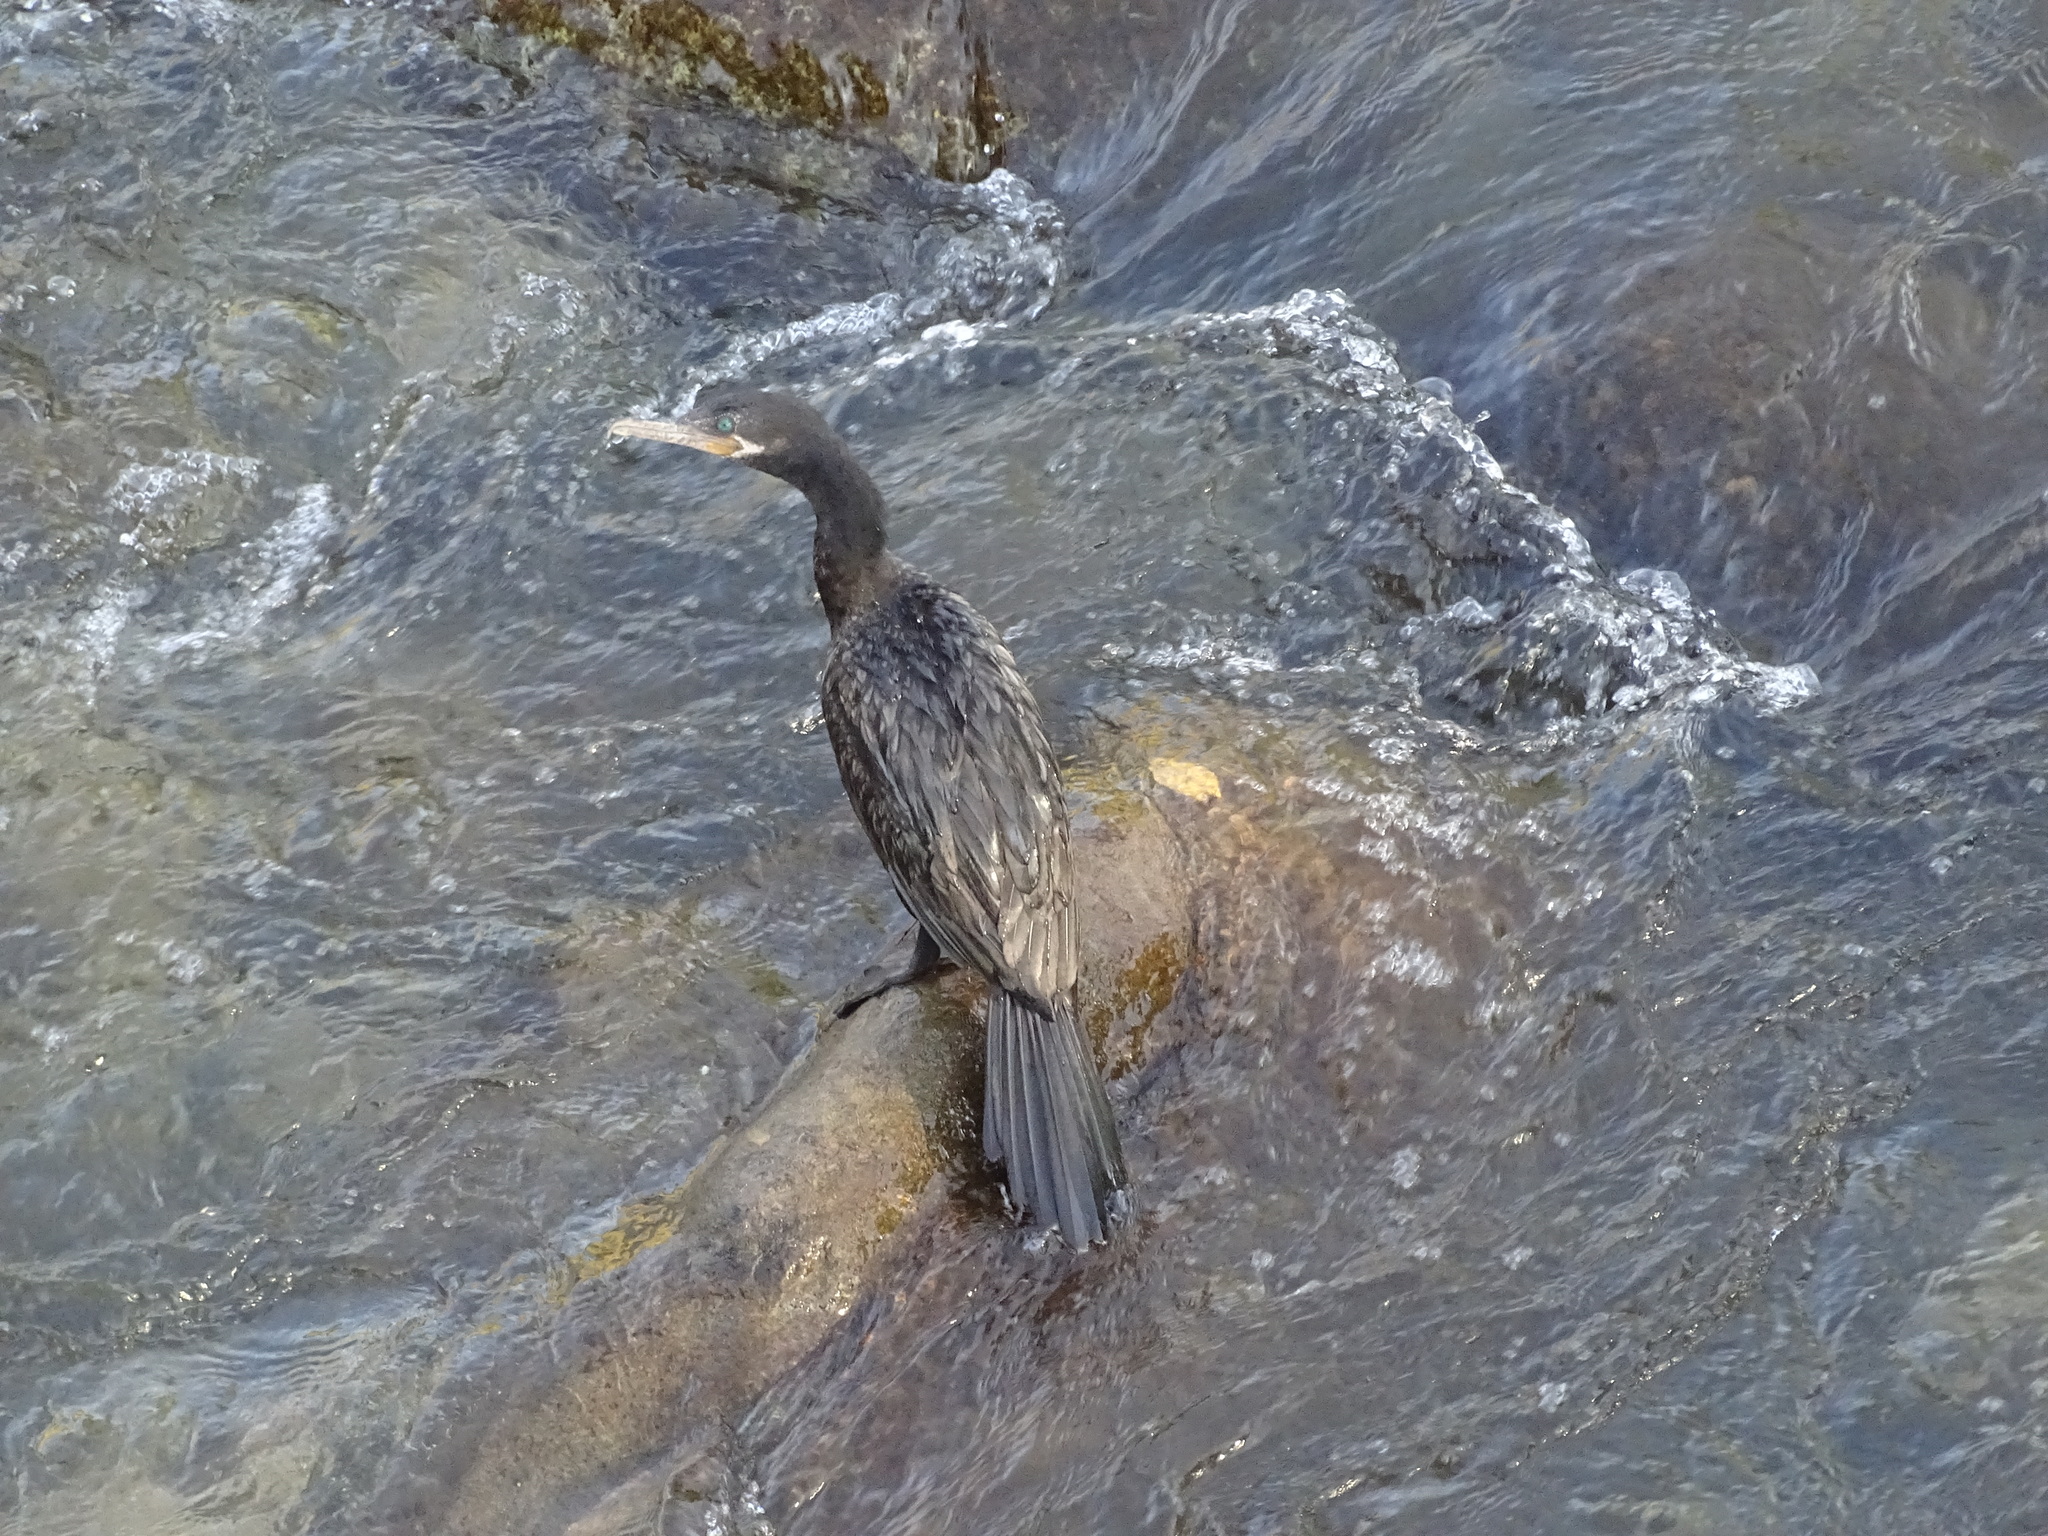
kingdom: Animalia
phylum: Chordata
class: Aves
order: Suliformes
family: Phalacrocoracidae
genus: Phalacrocorax
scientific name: Phalacrocorax brasilianus
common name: Neotropic cormorant
